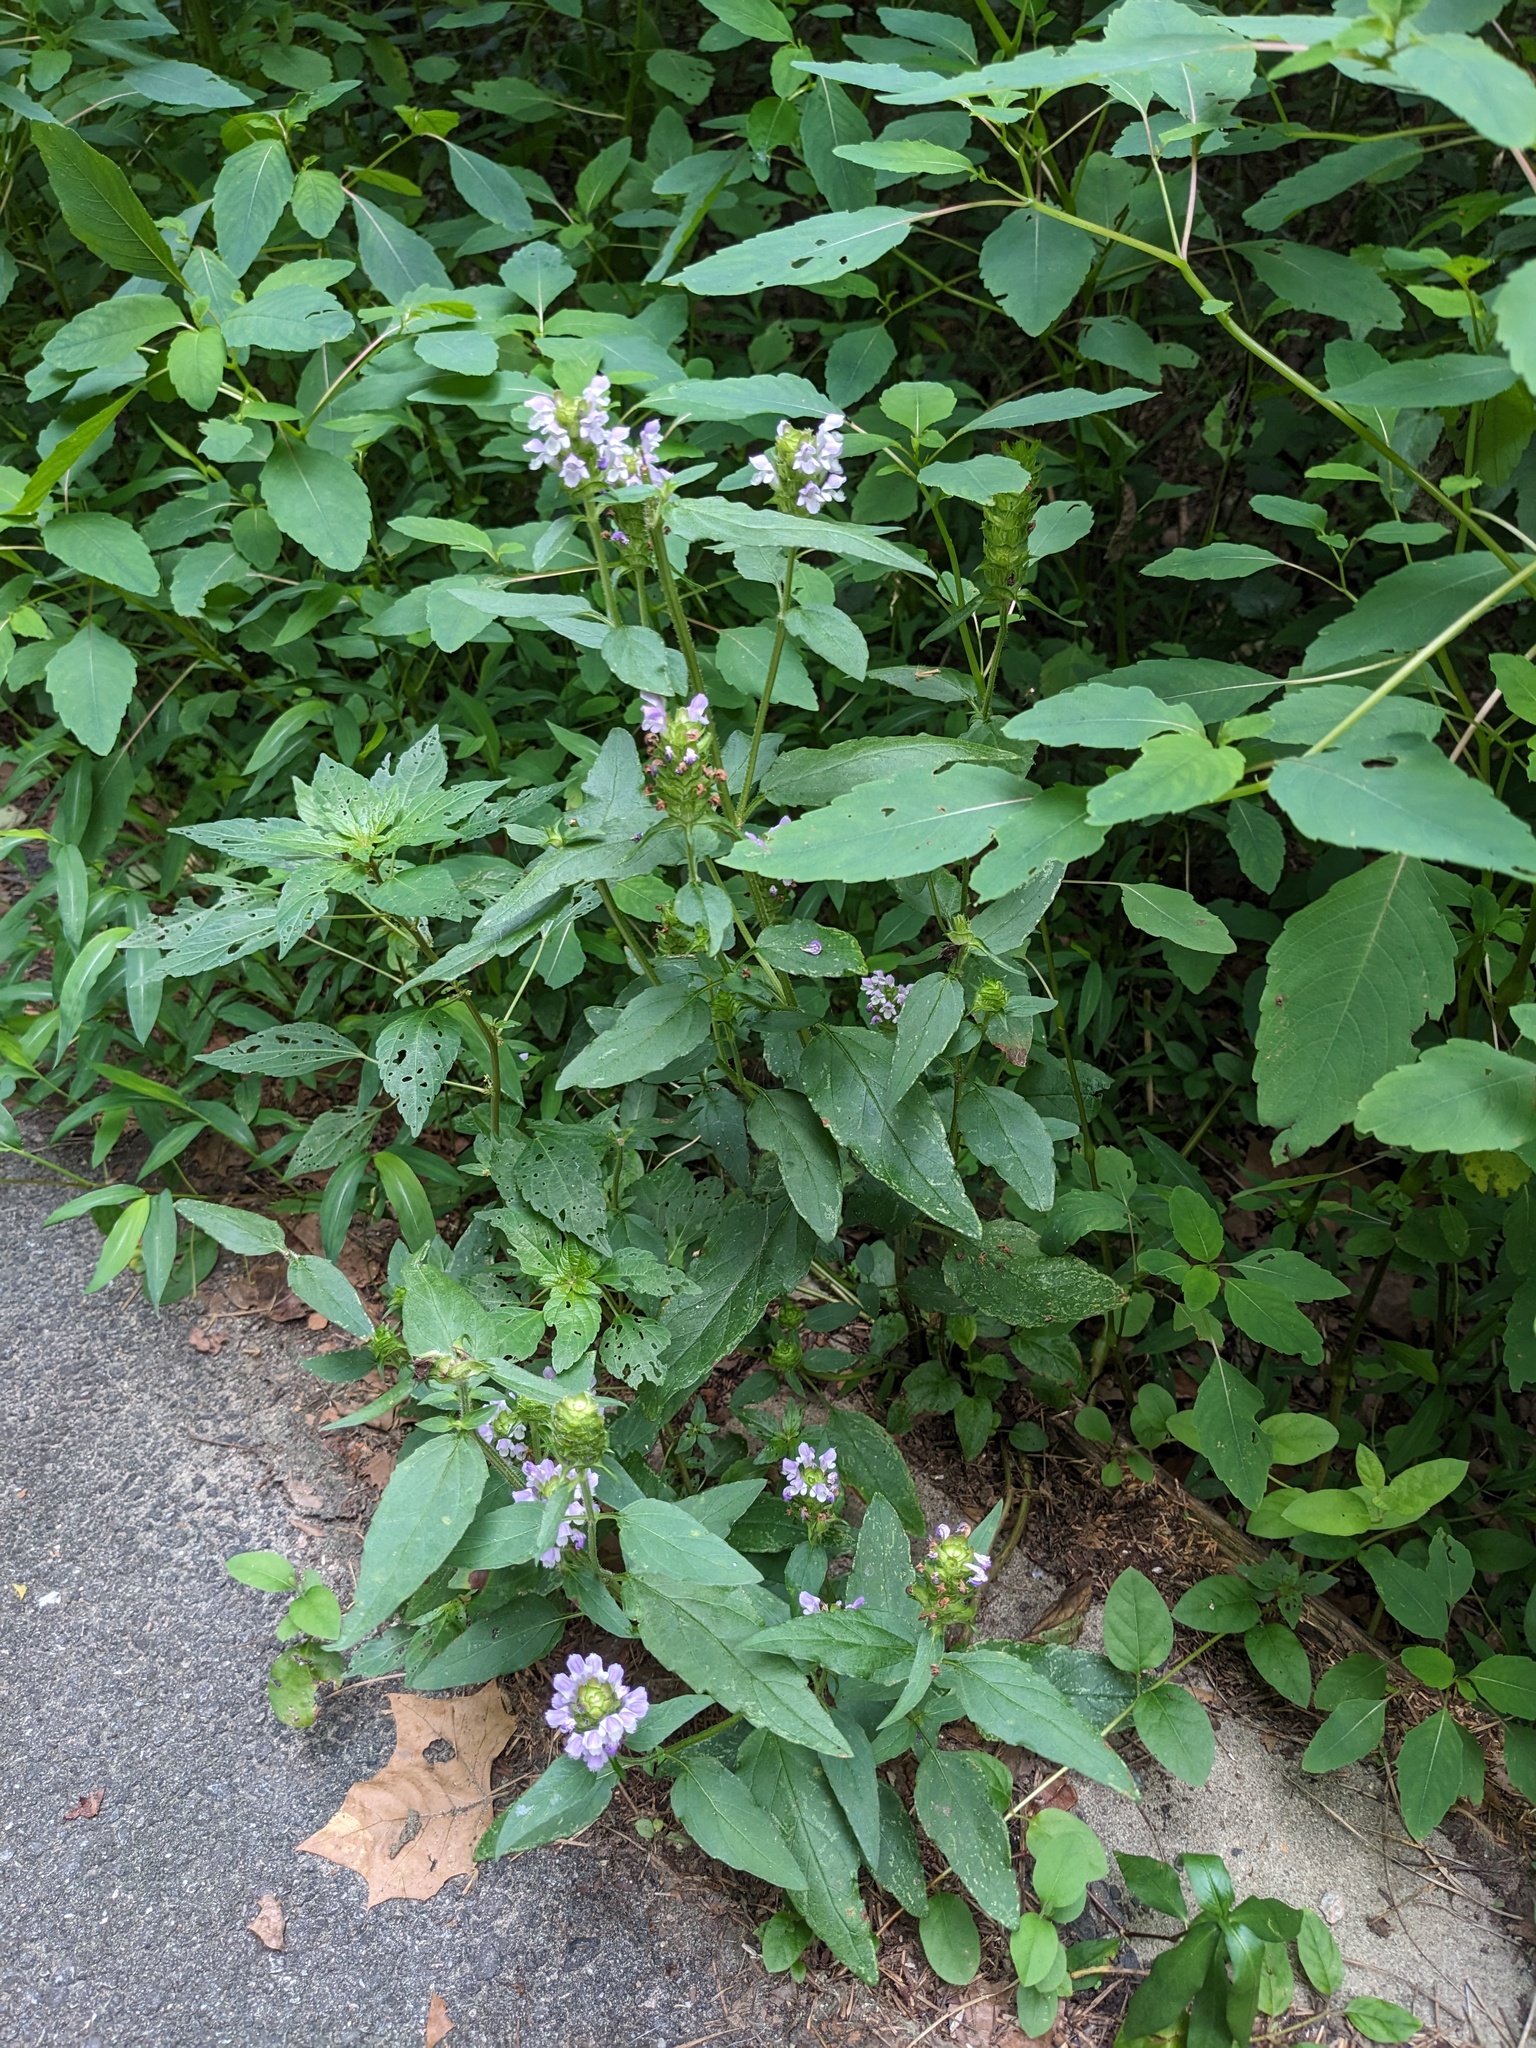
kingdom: Plantae
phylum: Tracheophyta
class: Magnoliopsida
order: Lamiales
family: Lamiaceae
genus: Prunella
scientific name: Prunella vulgaris
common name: Heal-all
